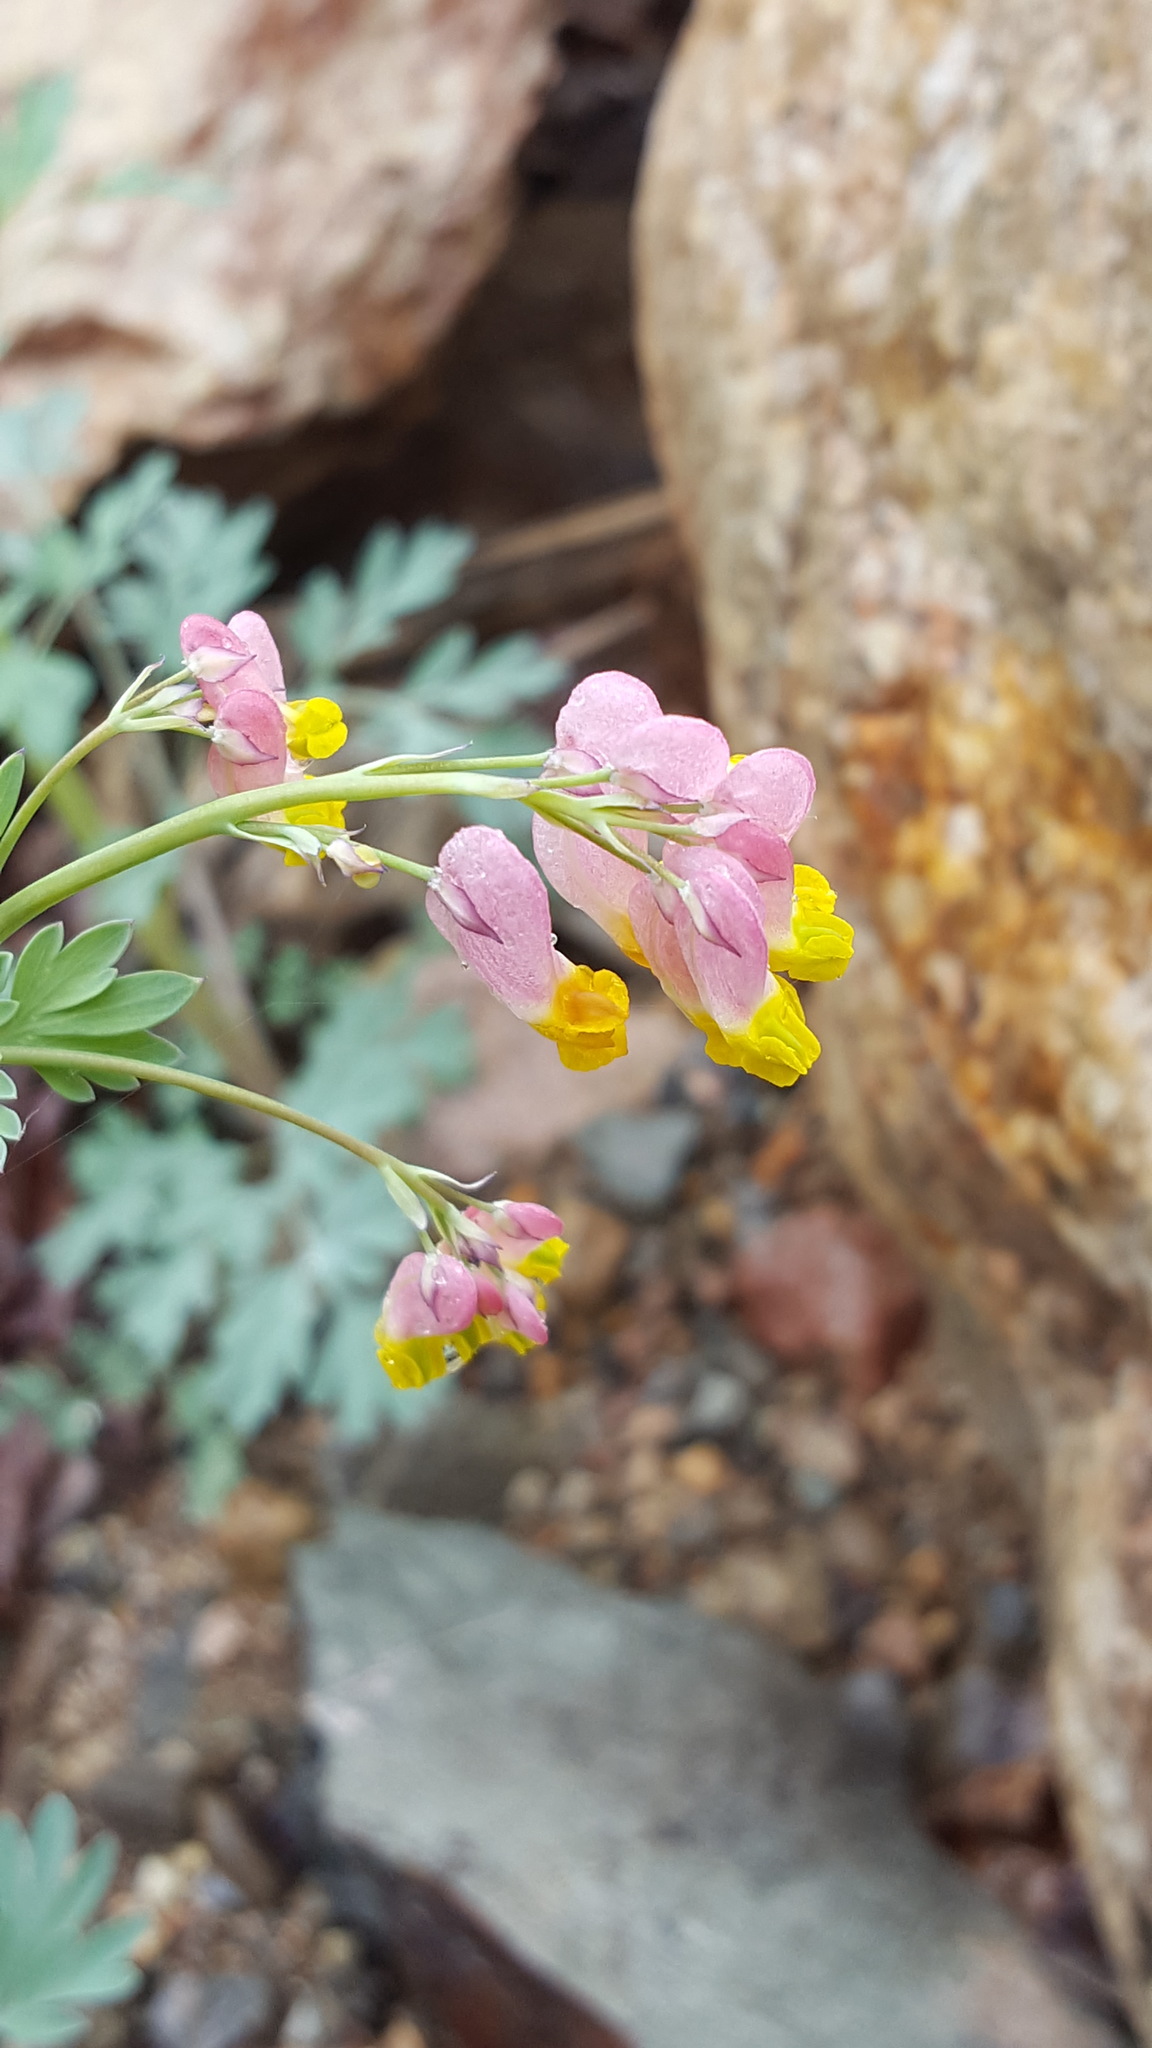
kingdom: Plantae
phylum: Tracheophyta
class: Magnoliopsida
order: Ranunculales
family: Papaveraceae
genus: Capnoides
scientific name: Capnoides sempervirens
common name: Rock harlequin
